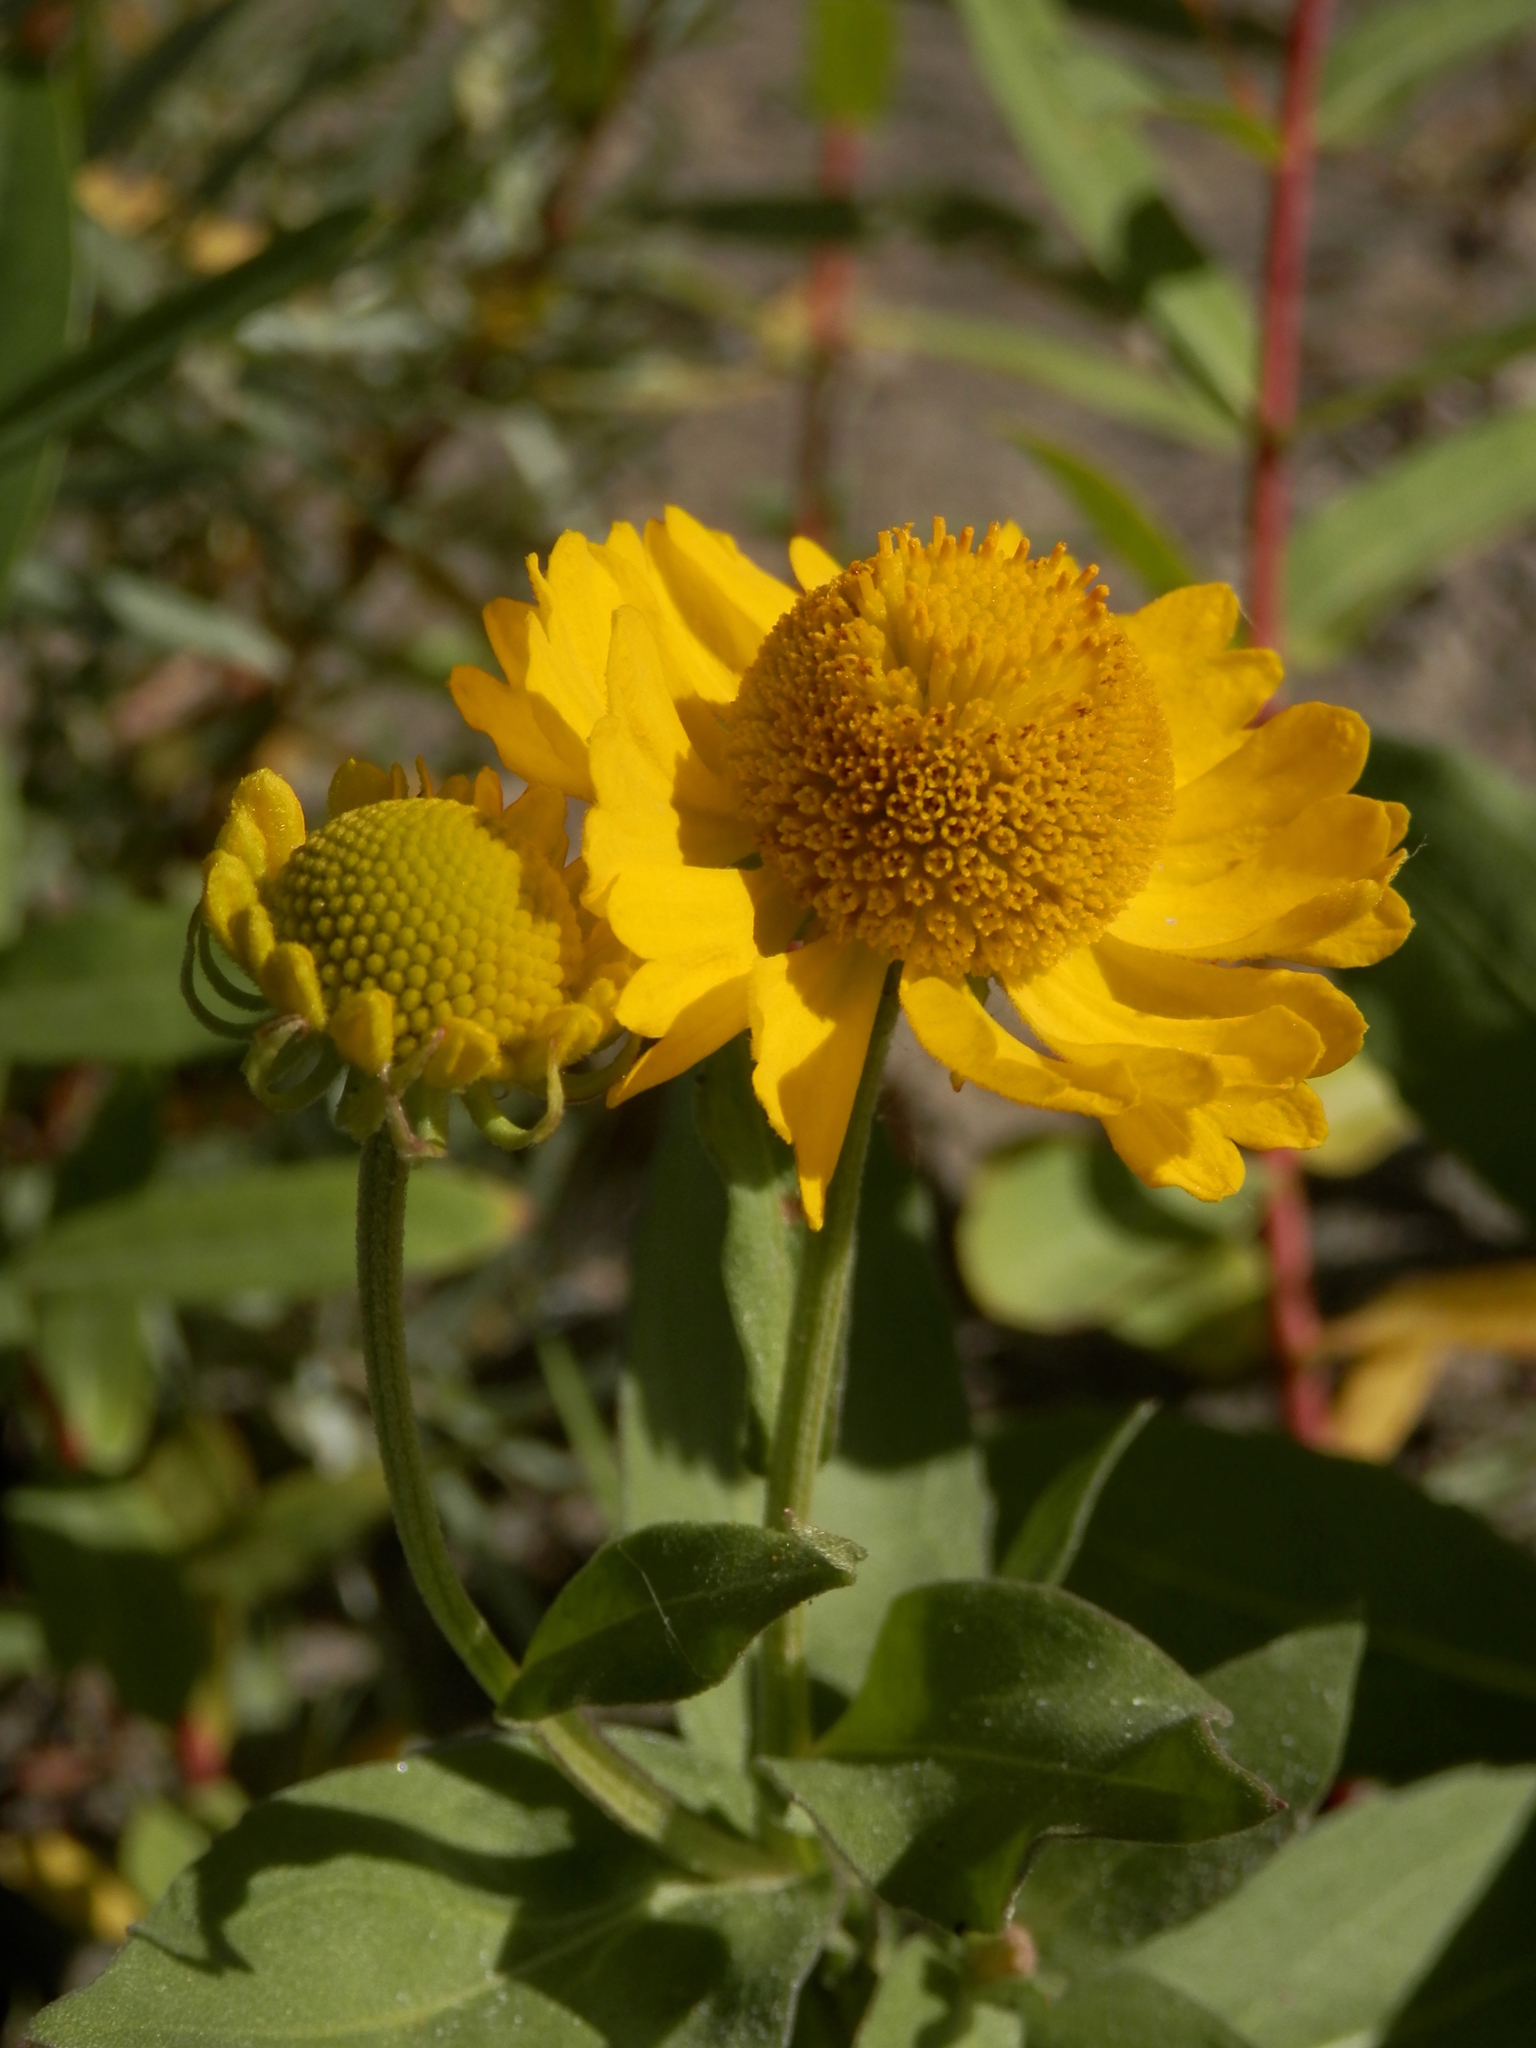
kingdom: Plantae
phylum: Tracheophyta
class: Magnoliopsida
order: Asterales
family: Asteraceae
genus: Helenium
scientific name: Helenium autumnale
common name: Sneezeweed
